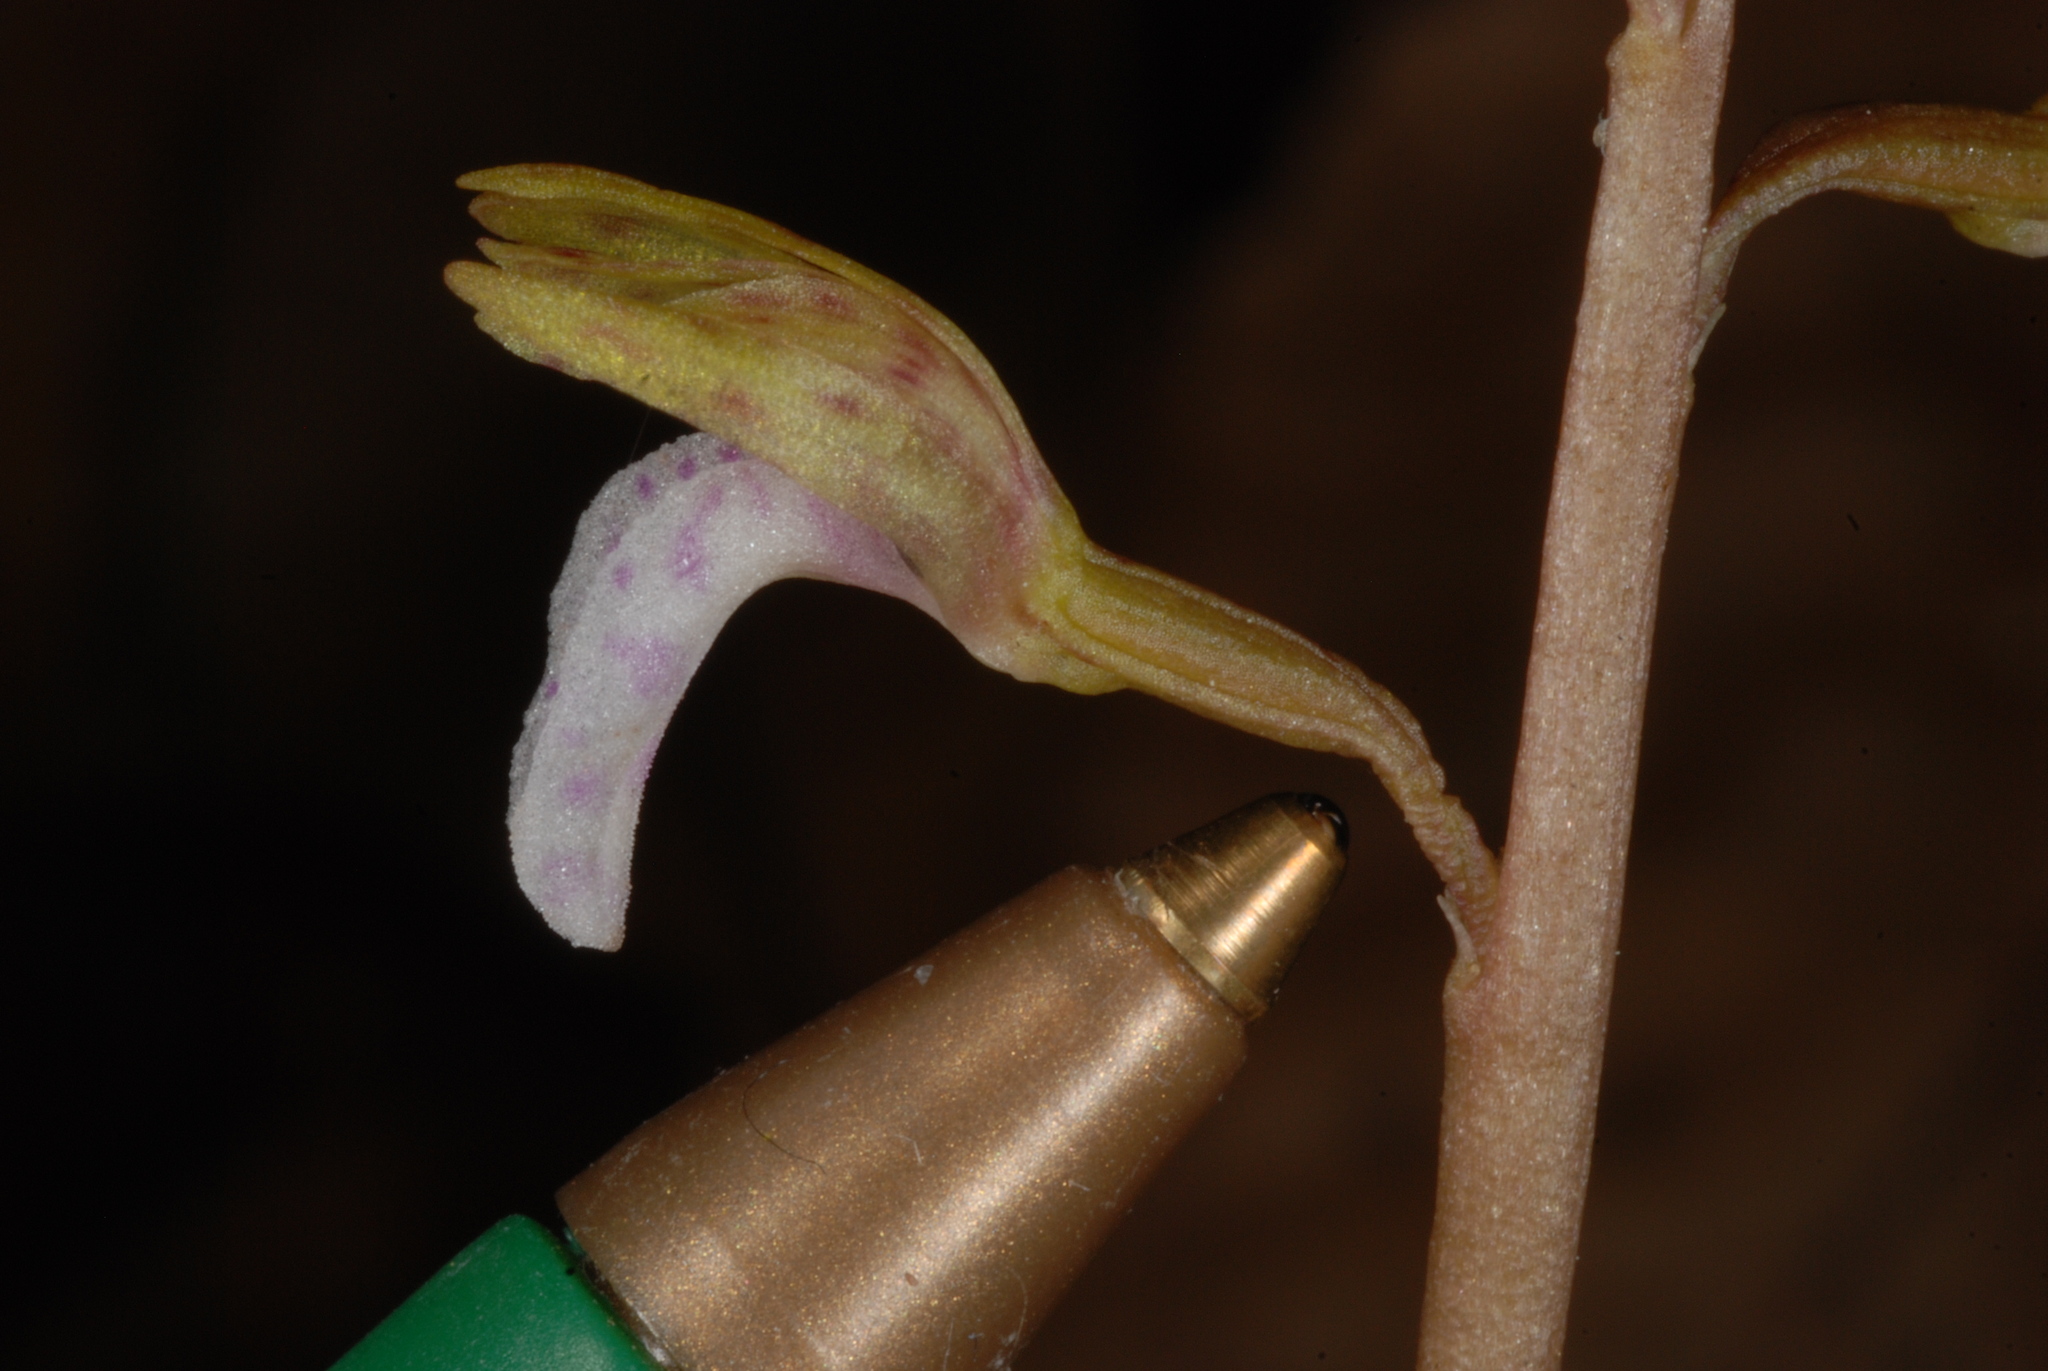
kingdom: Plantae
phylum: Tracheophyta
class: Liliopsida
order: Asparagales
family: Orchidaceae
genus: Corallorhiza
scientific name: Corallorhiza wisteriana
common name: Spring coralroot
